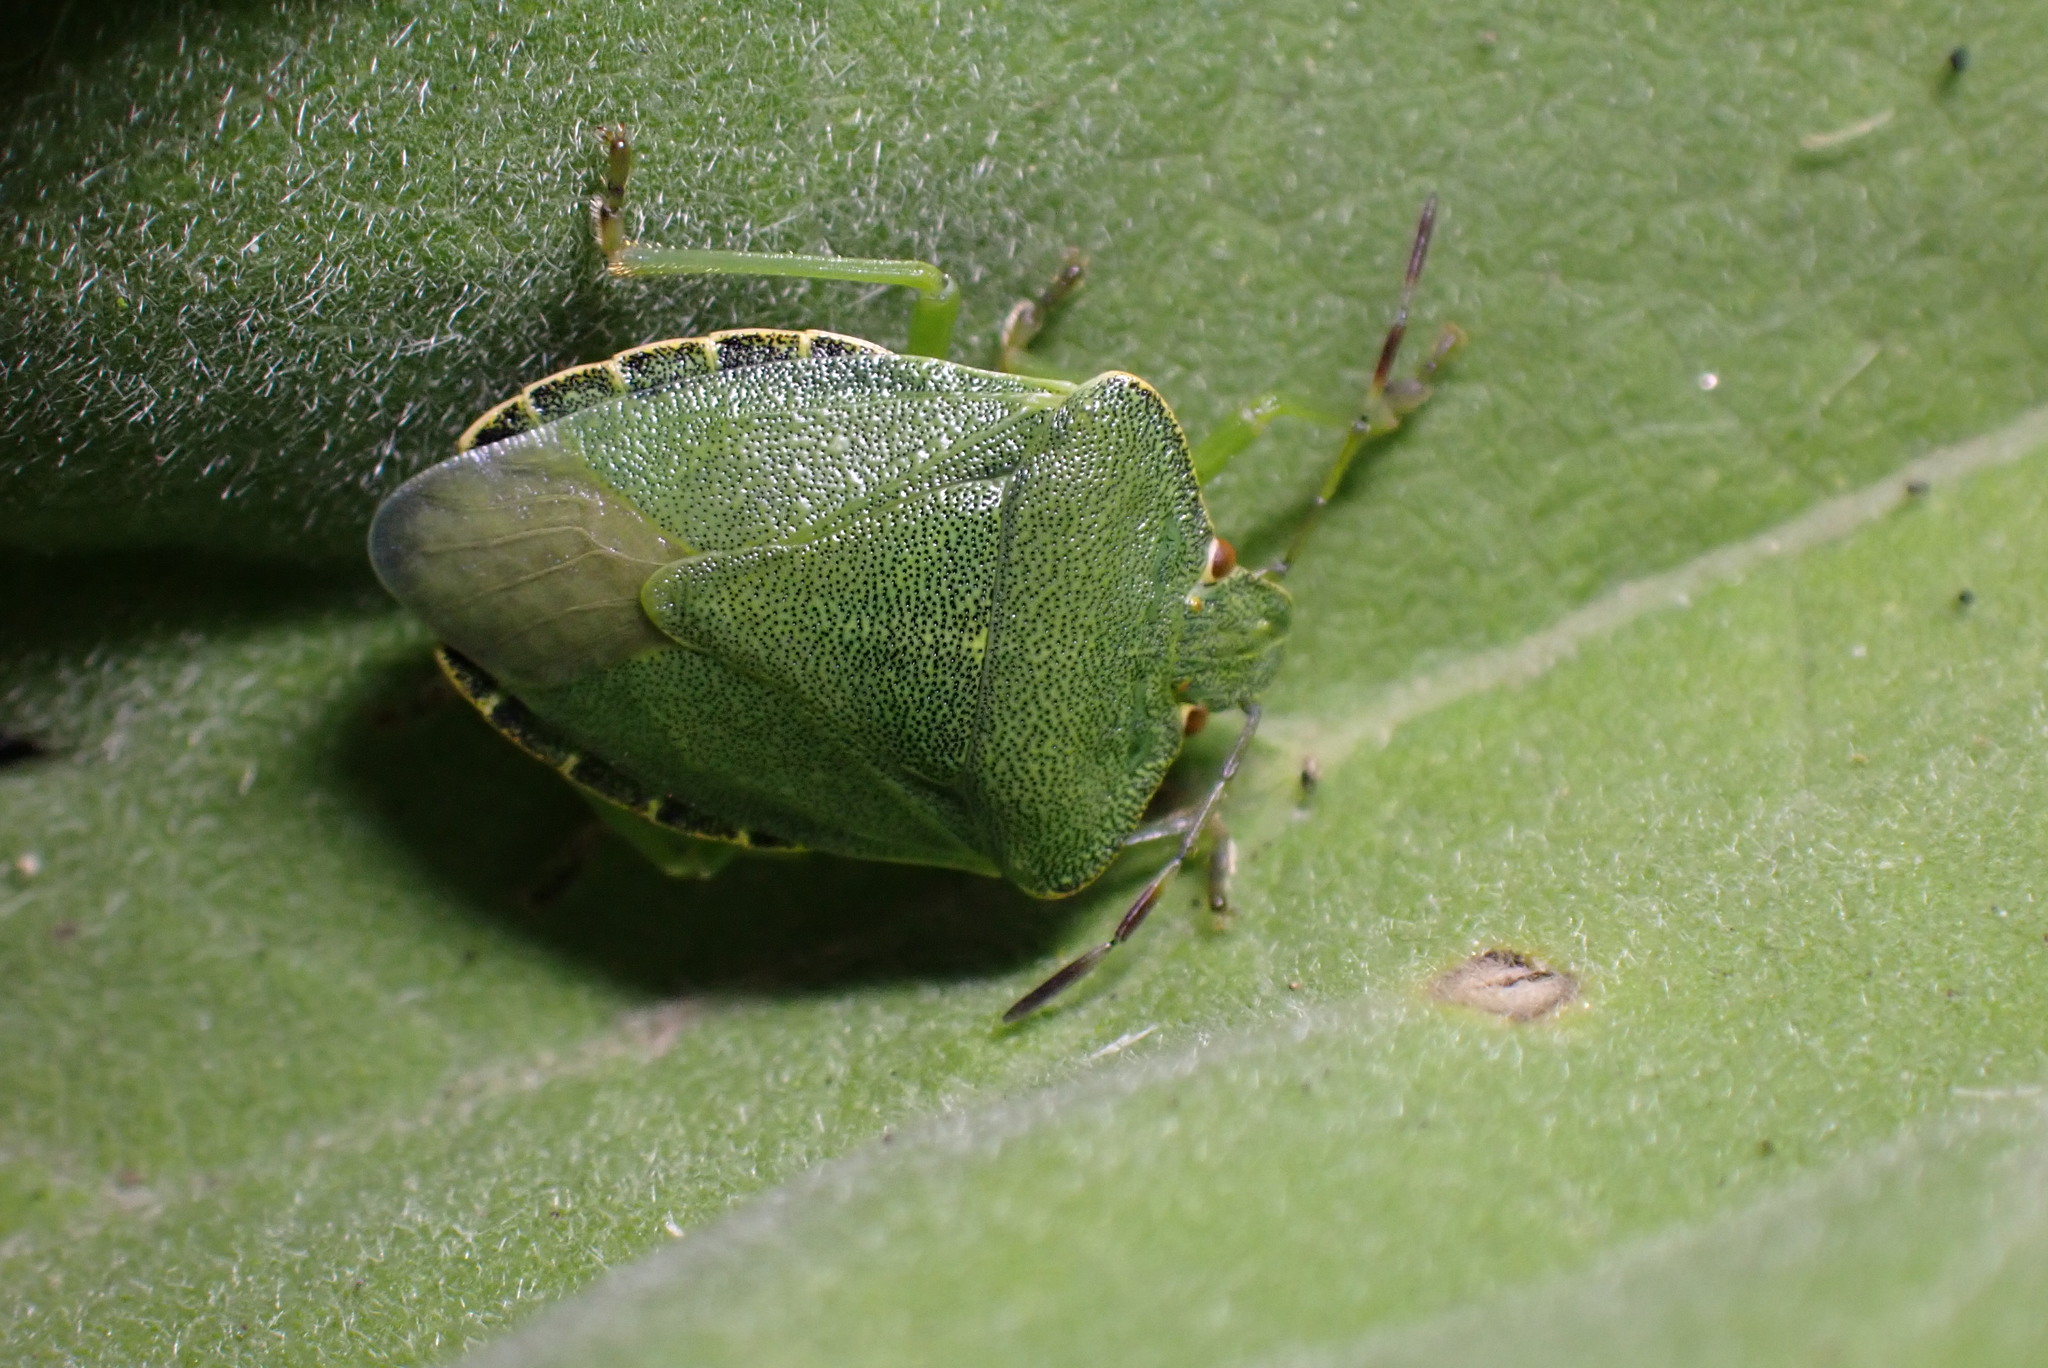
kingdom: Animalia
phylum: Arthropoda
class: Insecta
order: Hemiptera
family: Pentatomidae
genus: Palomena
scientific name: Palomena prasina
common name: Green shieldbug
